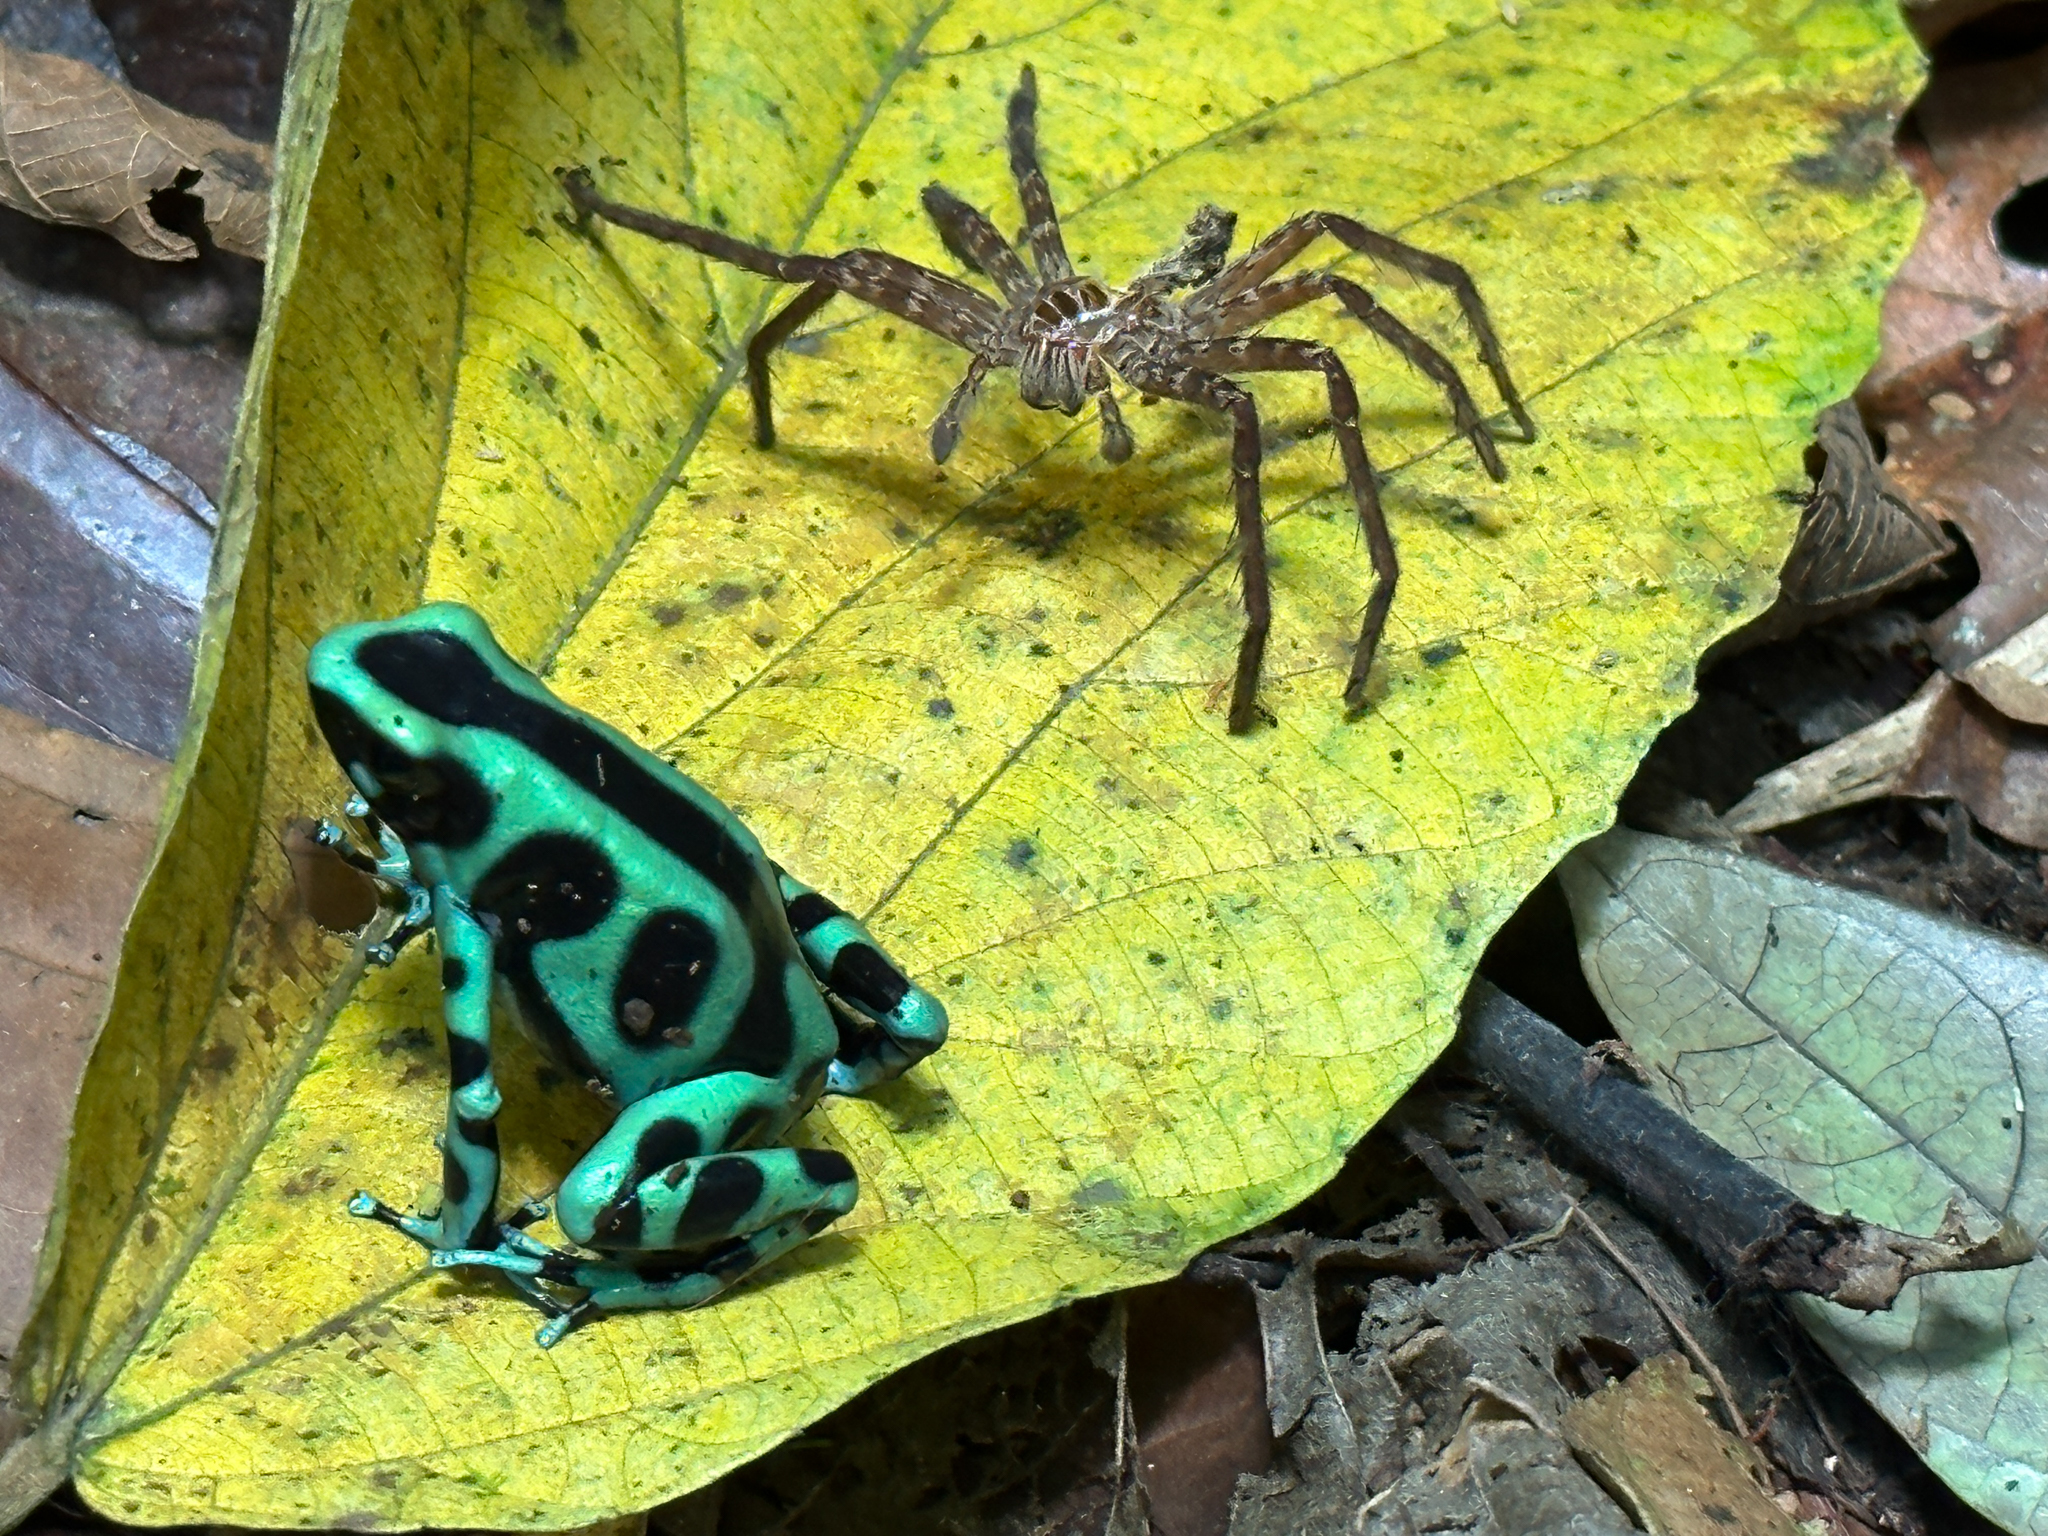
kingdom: Animalia
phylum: Chordata
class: Amphibia
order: Anura
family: Dendrobatidae
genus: Dendrobates
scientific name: Dendrobates auratus
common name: Green and black poison dart frog
